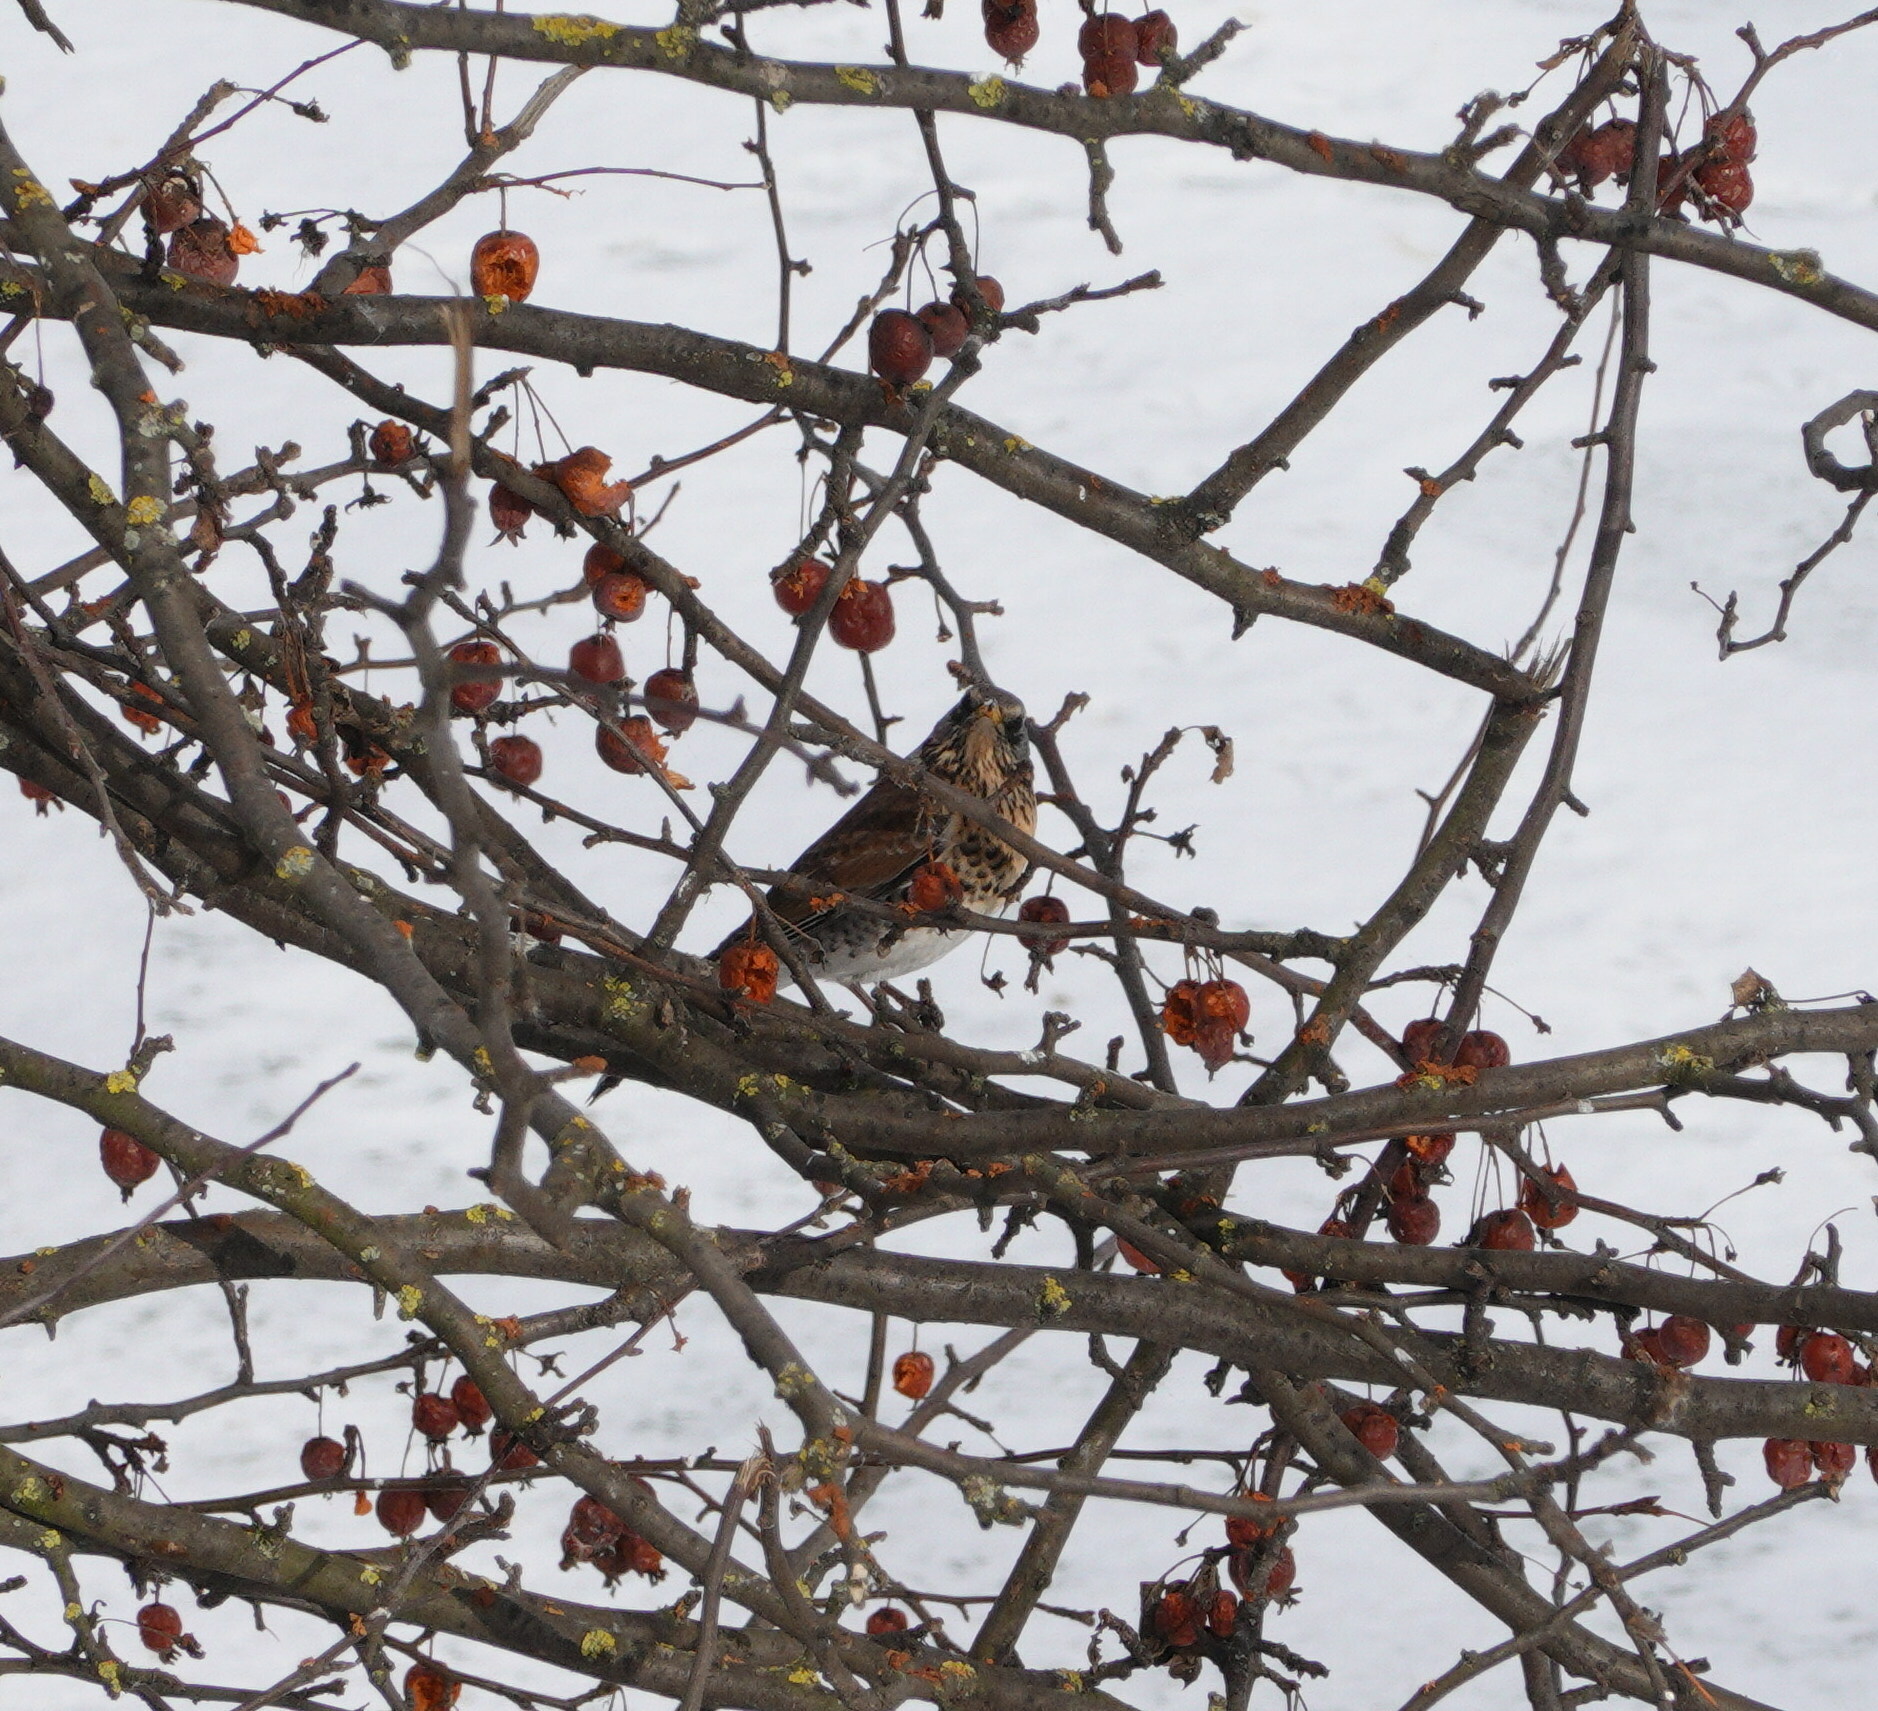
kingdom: Animalia
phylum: Chordata
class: Aves
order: Passeriformes
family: Turdidae
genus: Turdus
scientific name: Turdus pilaris
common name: Fieldfare
